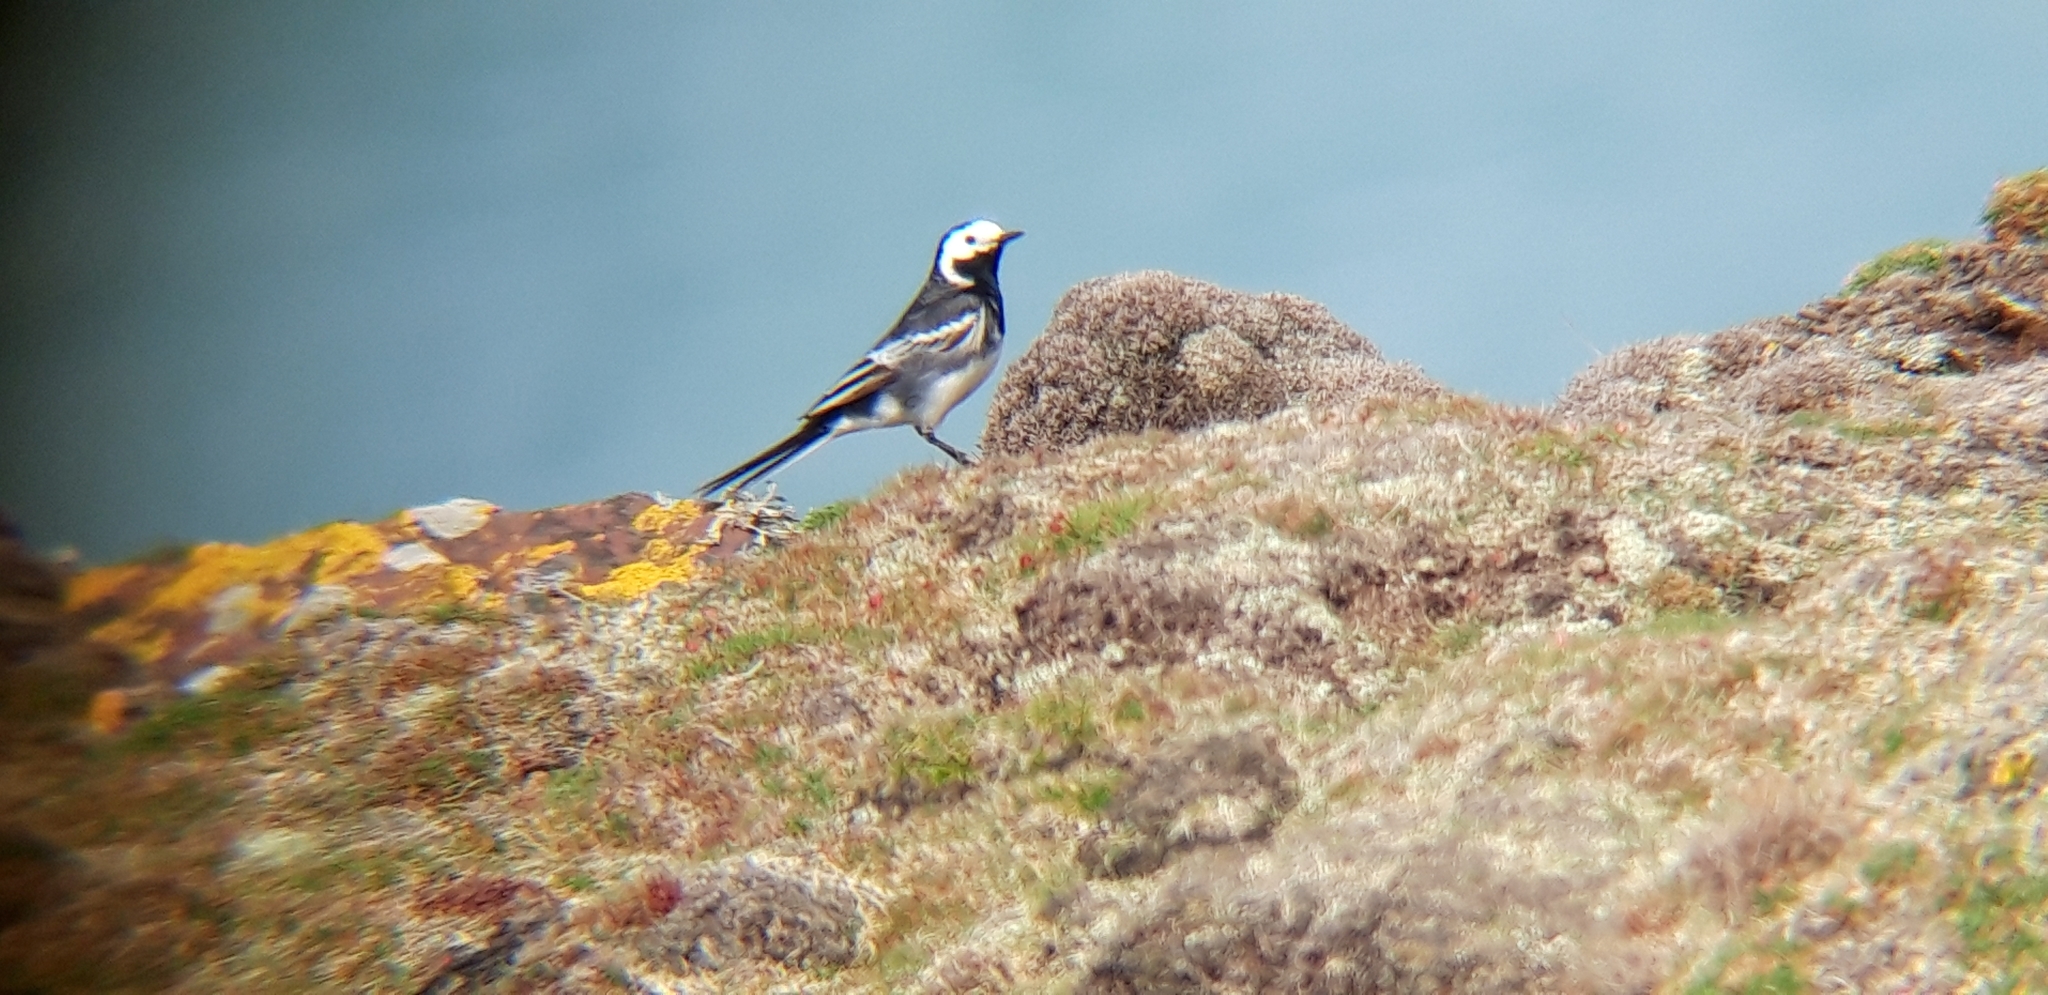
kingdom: Animalia
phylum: Chordata
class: Aves
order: Passeriformes
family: Motacillidae
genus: Motacilla
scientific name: Motacilla alba
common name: White wagtail
